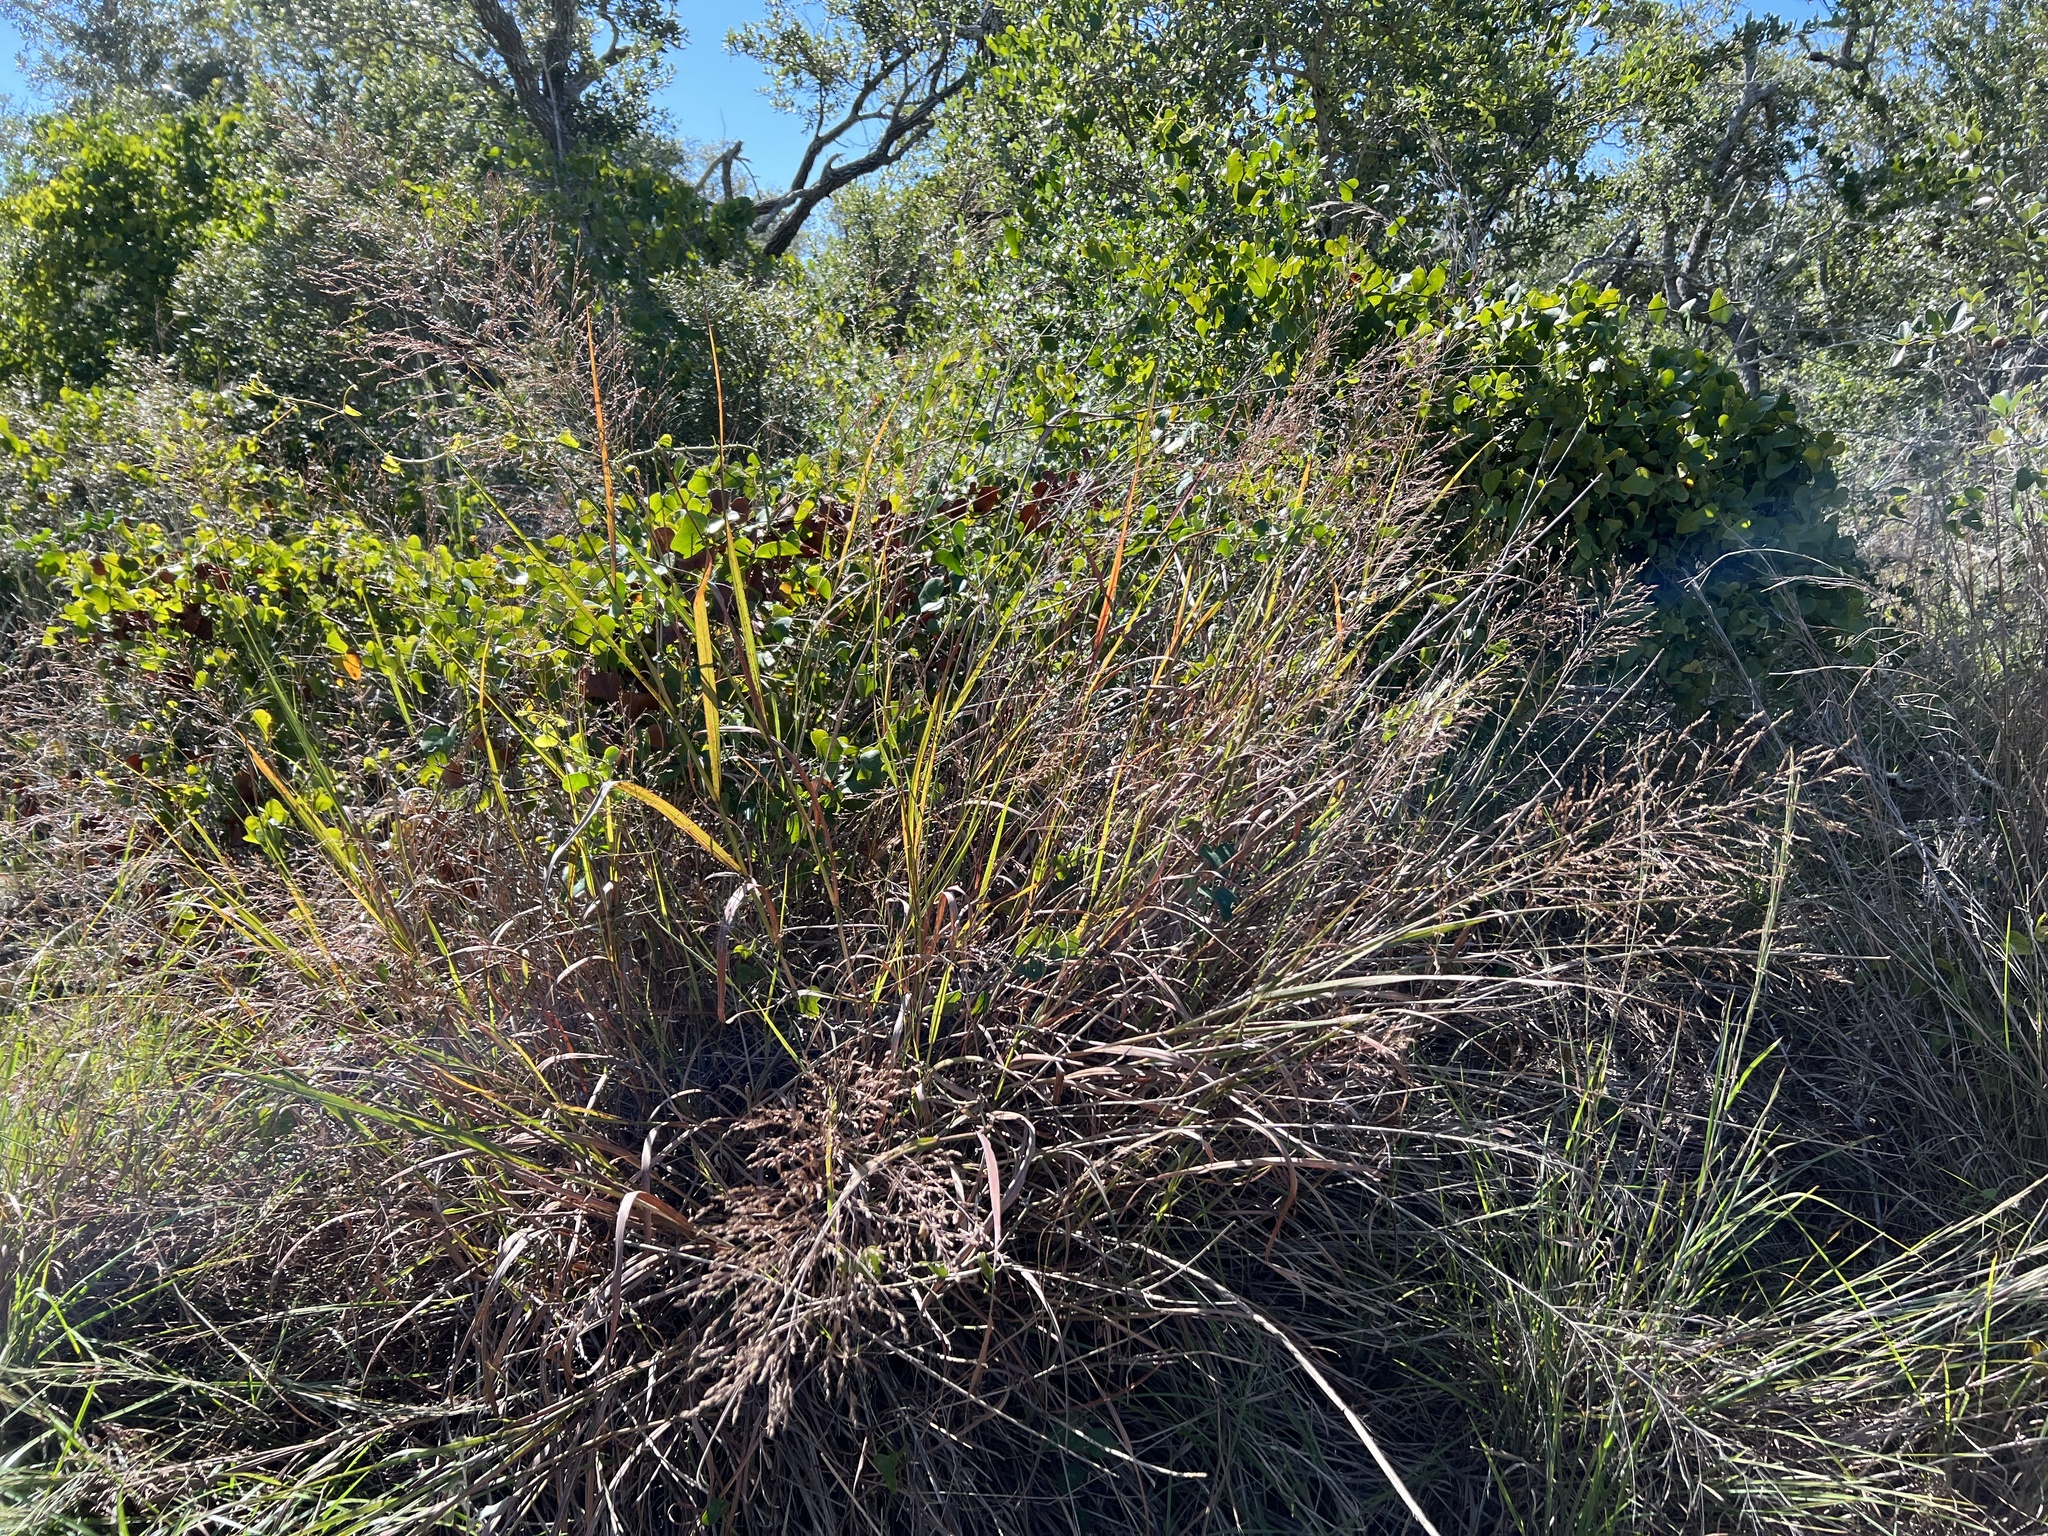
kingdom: Plantae
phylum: Tracheophyta
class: Liliopsida
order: Poales
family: Poaceae
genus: Panicum
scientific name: Panicum virgatum
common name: Switchgrass
